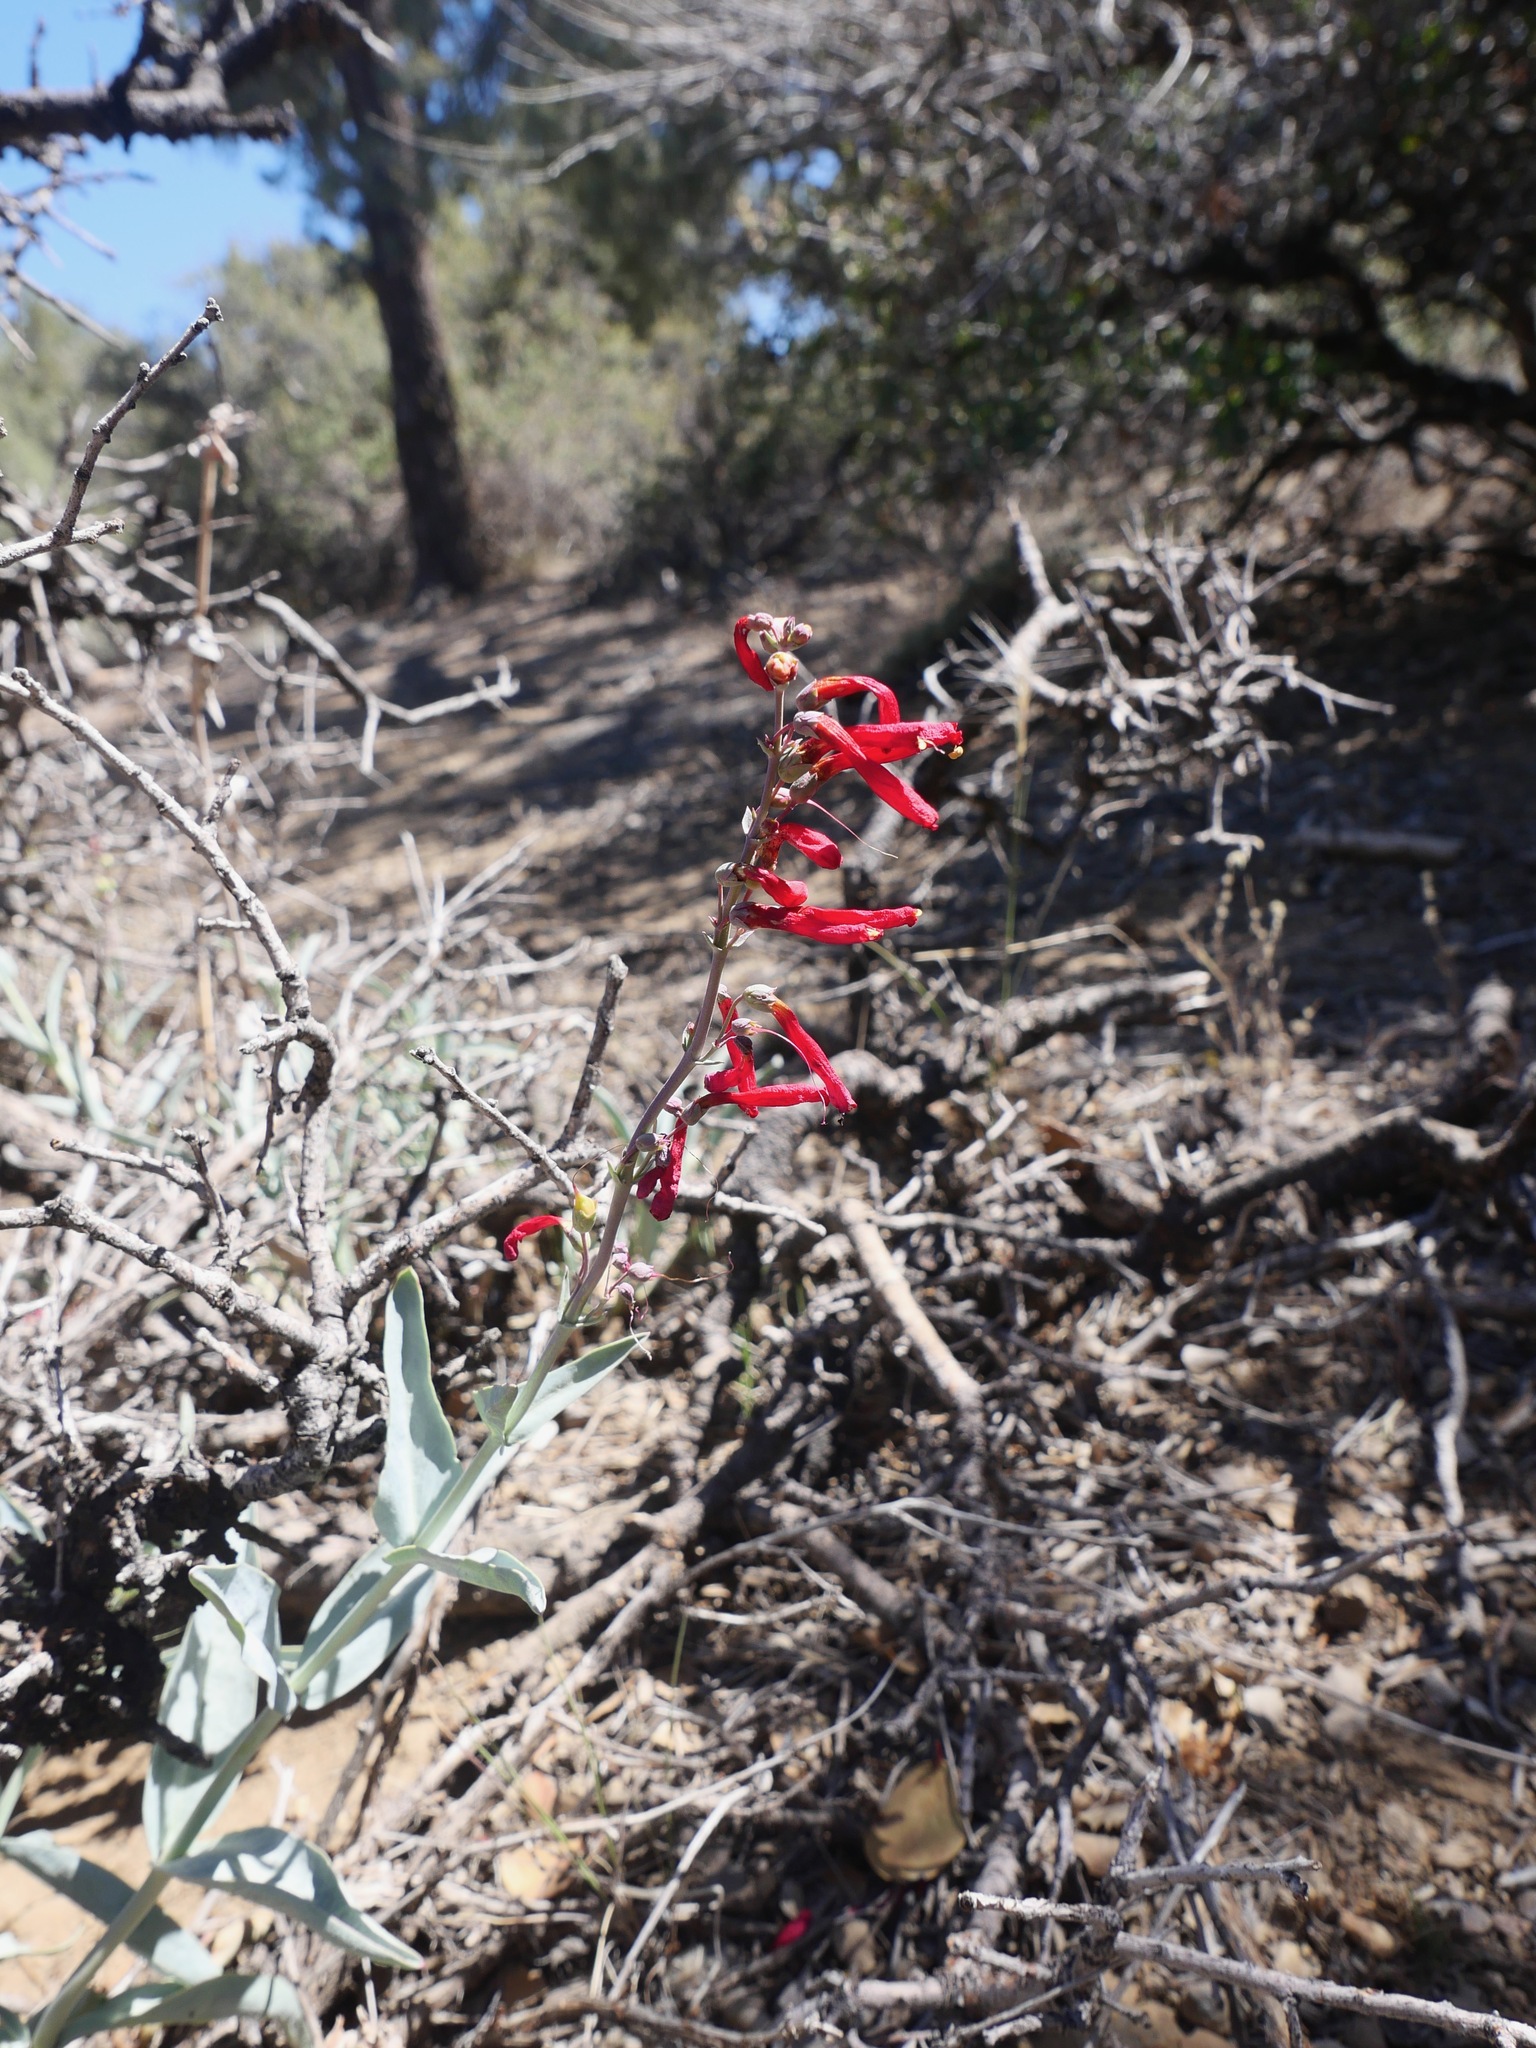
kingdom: Plantae
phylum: Tracheophyta
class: Magnoliopsida
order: Lamiales
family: Plantaginaceae
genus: Penstemon
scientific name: Penstemon centranthifolius
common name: Scarlet bugler
